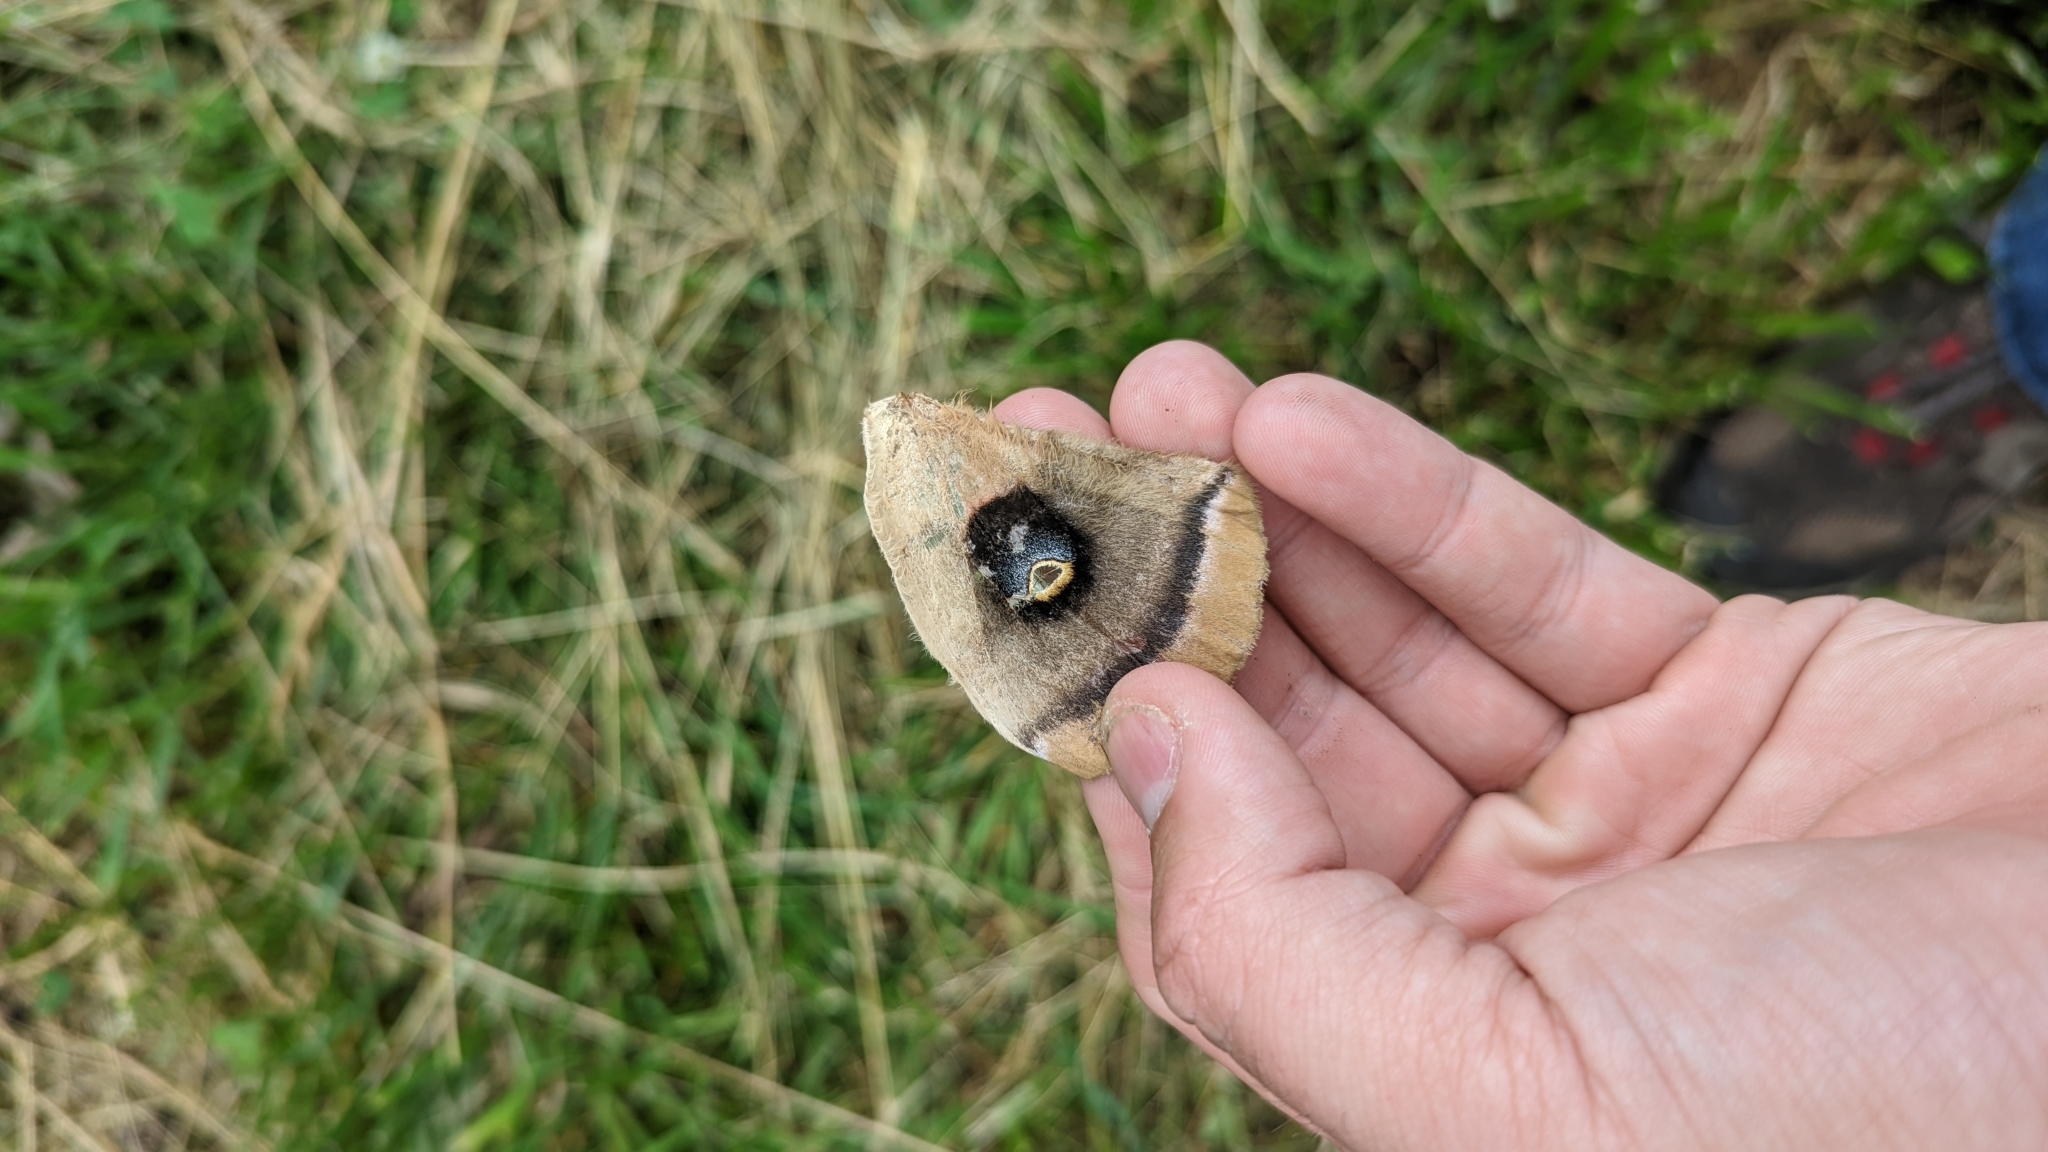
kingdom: Animalia
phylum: Arthropoda
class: Insecta
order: Lepidoptera
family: Saturniidae
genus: Antheraea
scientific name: Antheraea polyphemus
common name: Polyphemus moth
